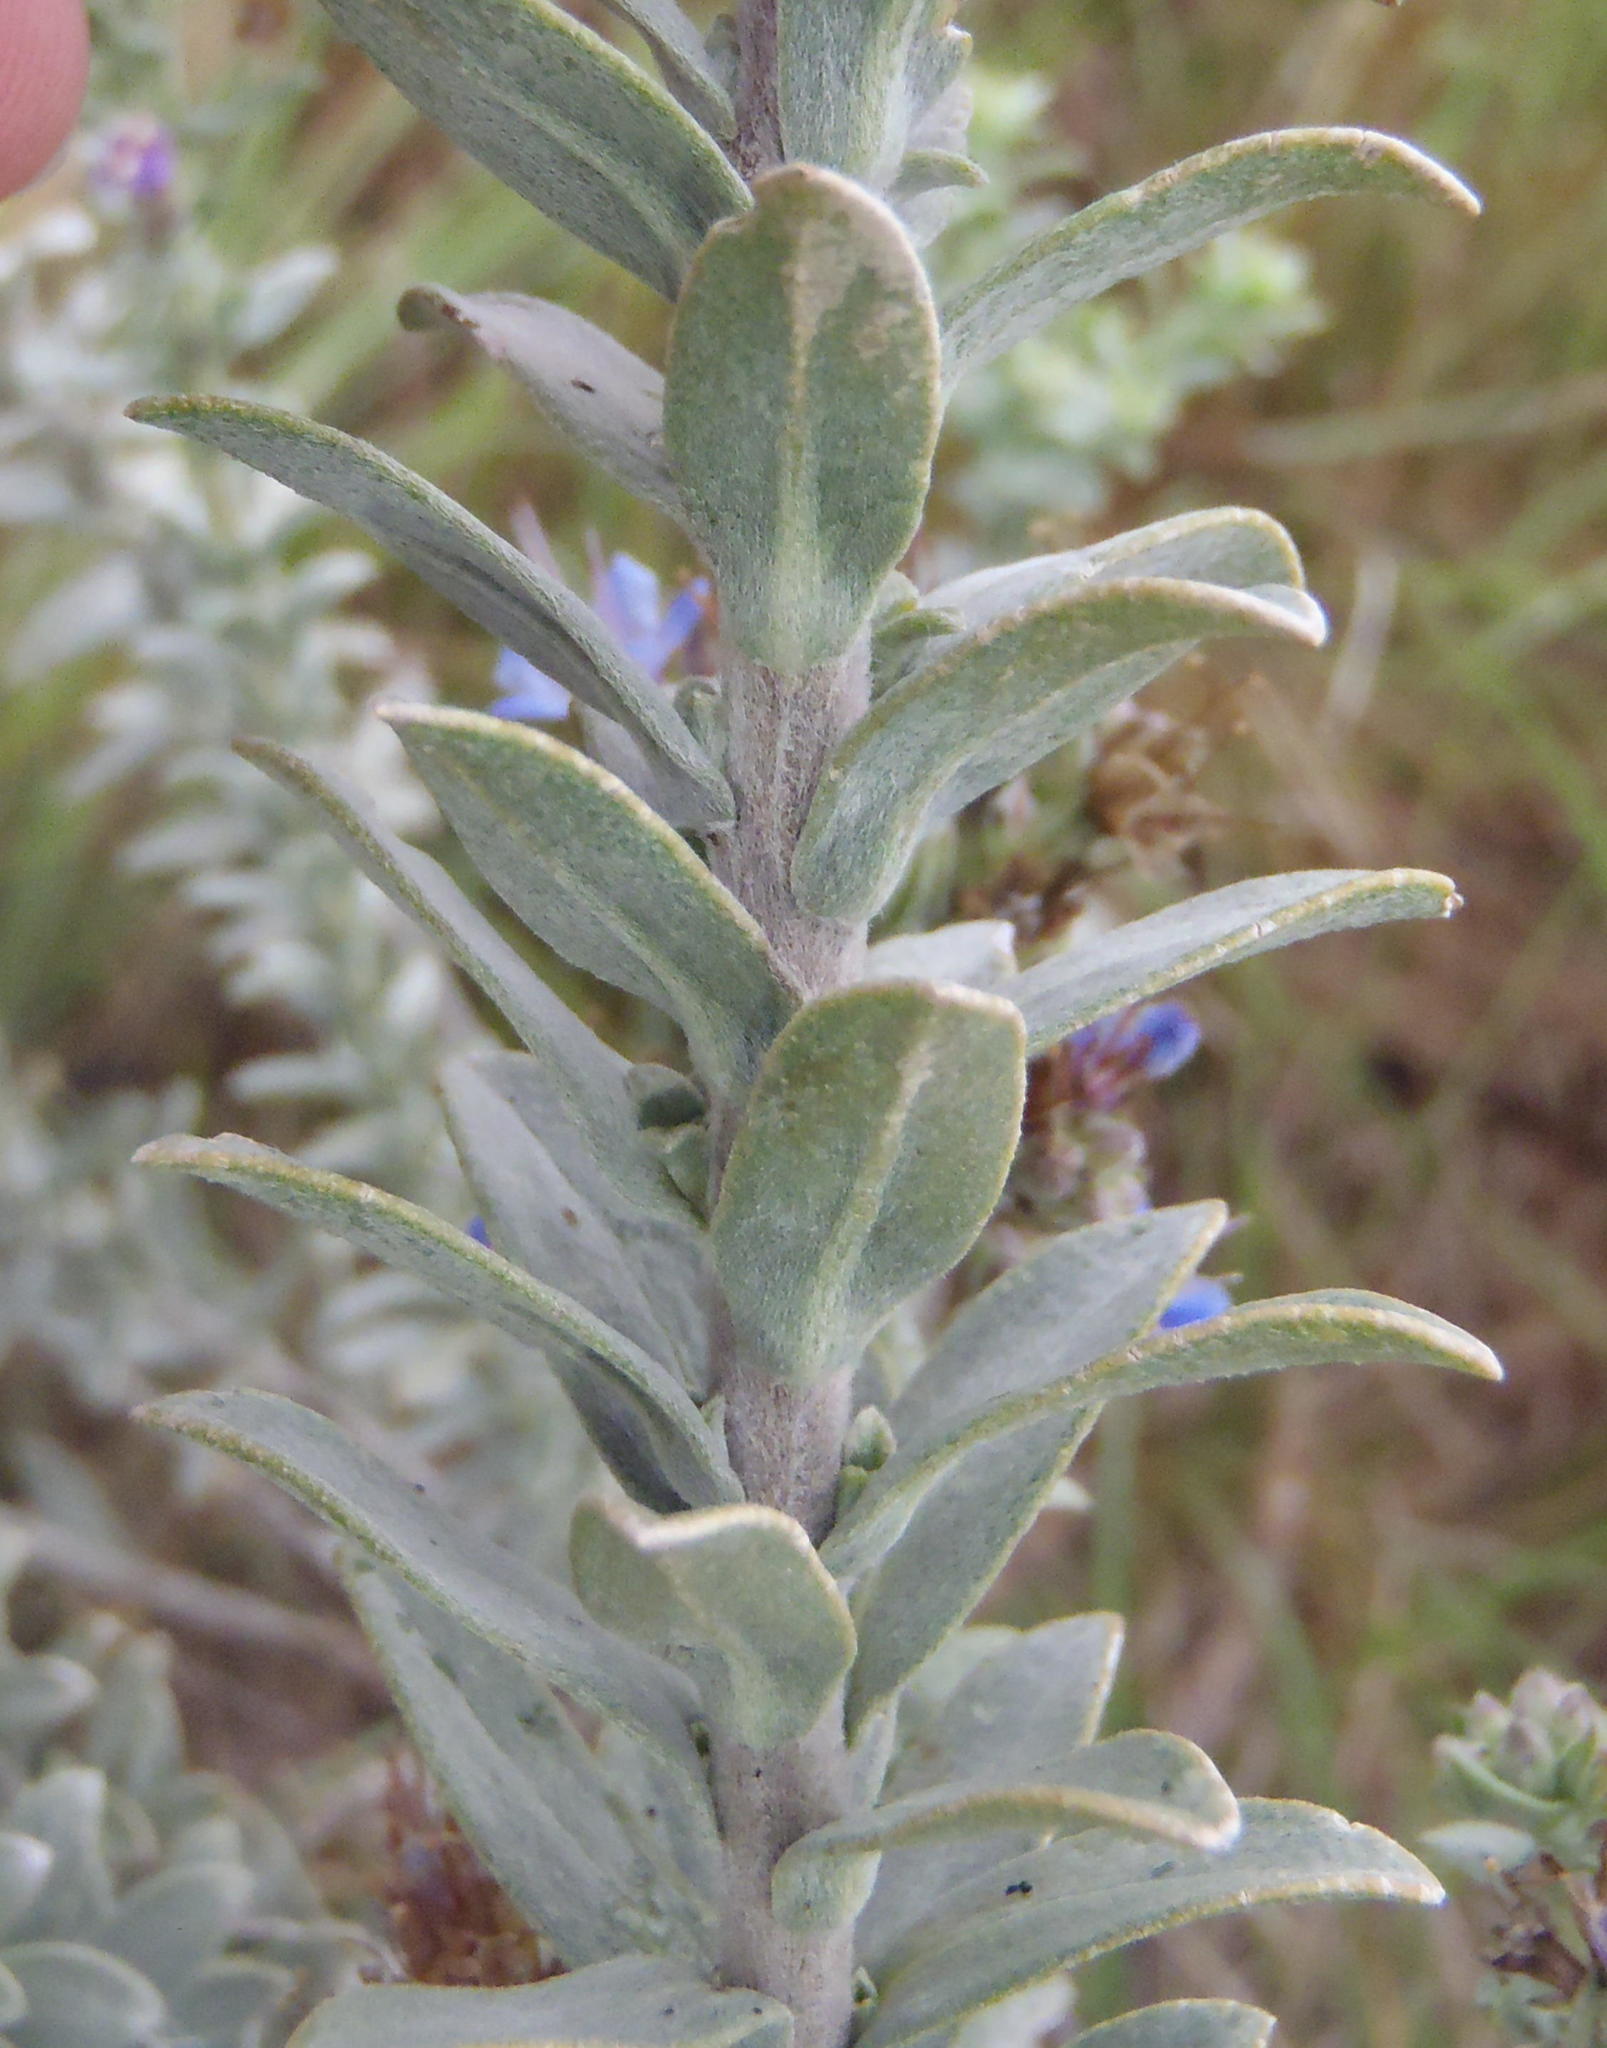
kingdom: Plantae
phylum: Tracheophyta
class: Magnoliopsida
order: Boraginales
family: Boraginaceae
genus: Lobostemon
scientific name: Lobostemon echioides
